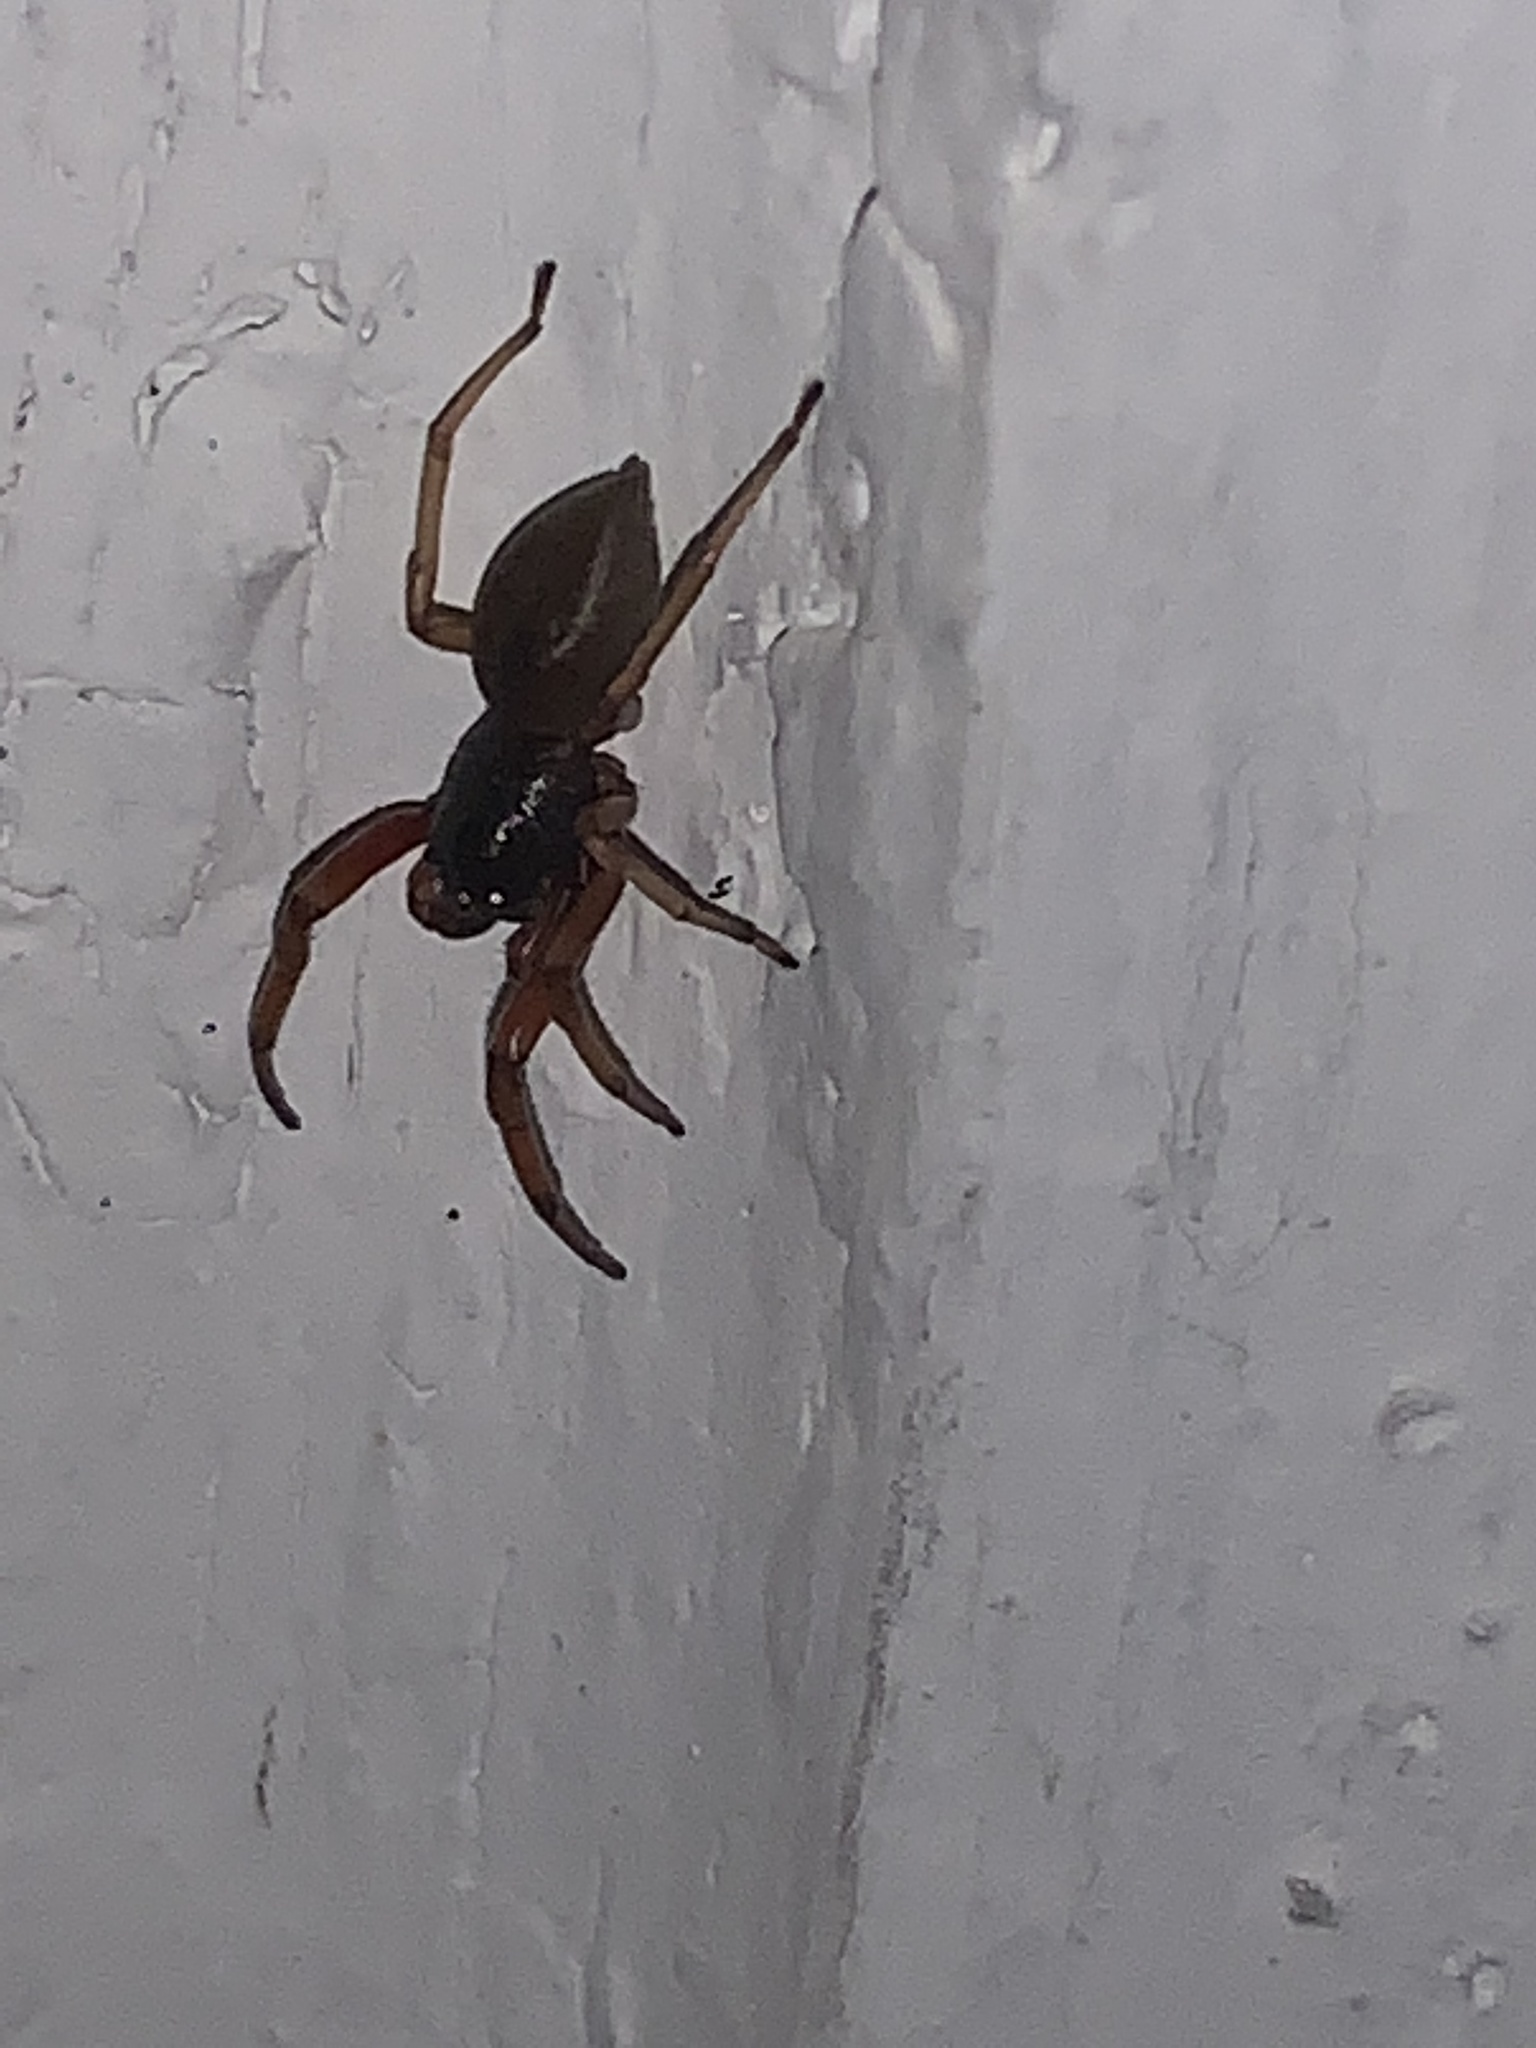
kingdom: Animalia
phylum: Arthropoda
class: Arachnida
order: Araneae
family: Trachelidae
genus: Trachelas
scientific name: Trachelas tranquillus
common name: Broad-faced sac spider
